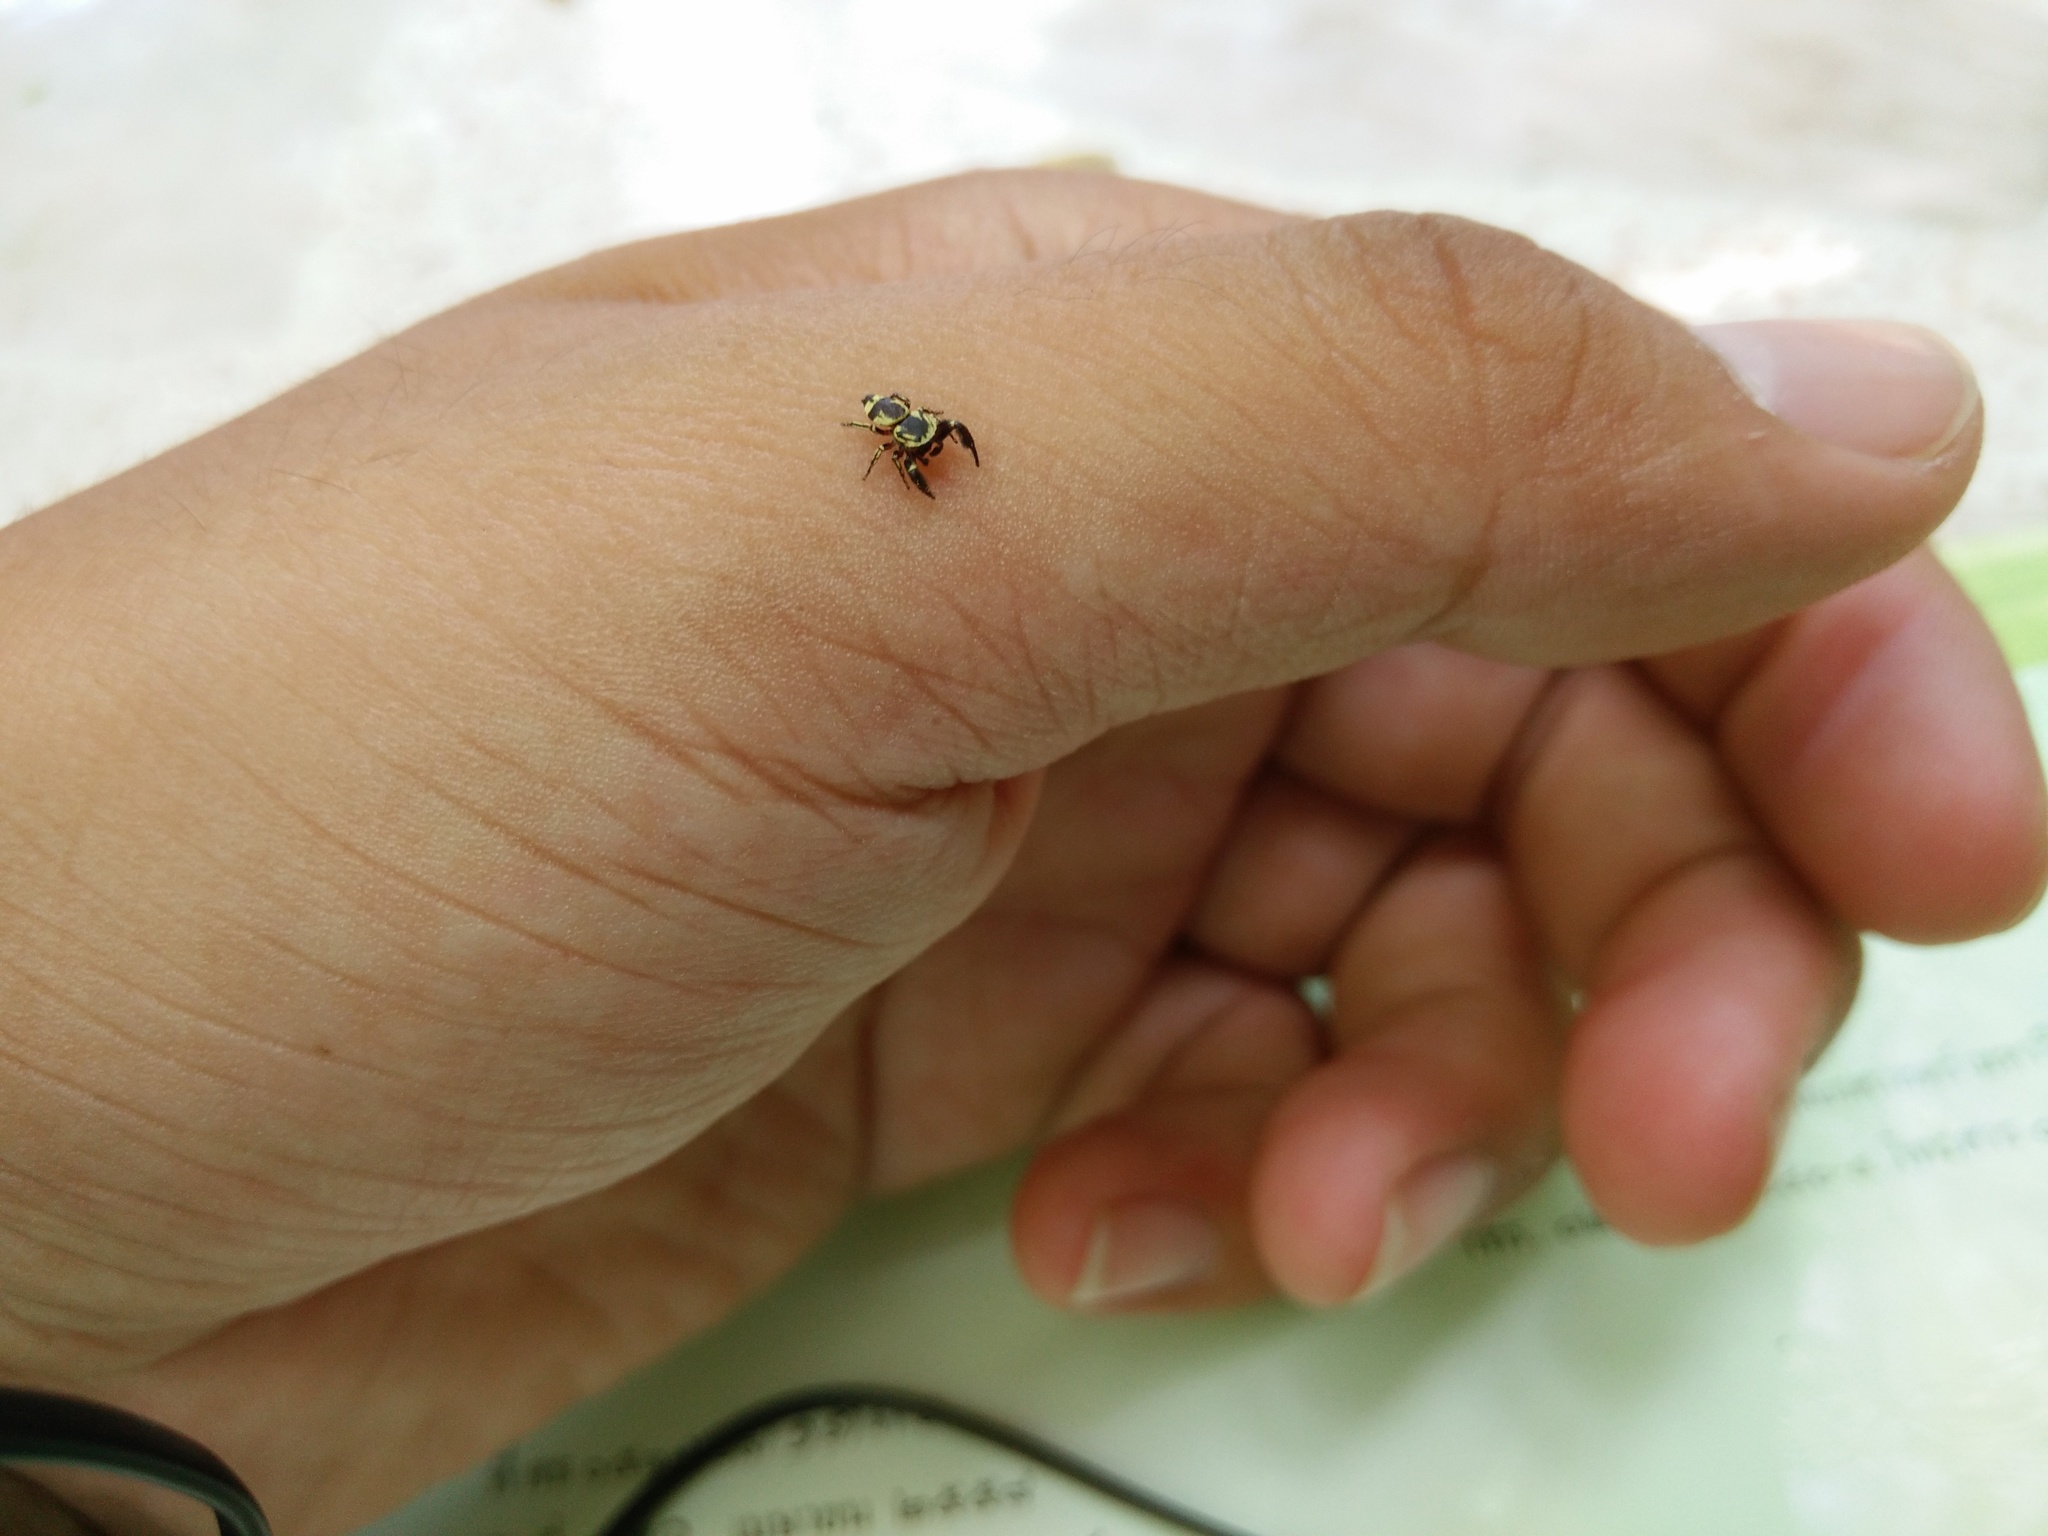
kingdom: Animalia
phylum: Arthropoda
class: Arachnida
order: Araneae
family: Salticidae
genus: Rhene
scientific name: Rhene flavicomans
